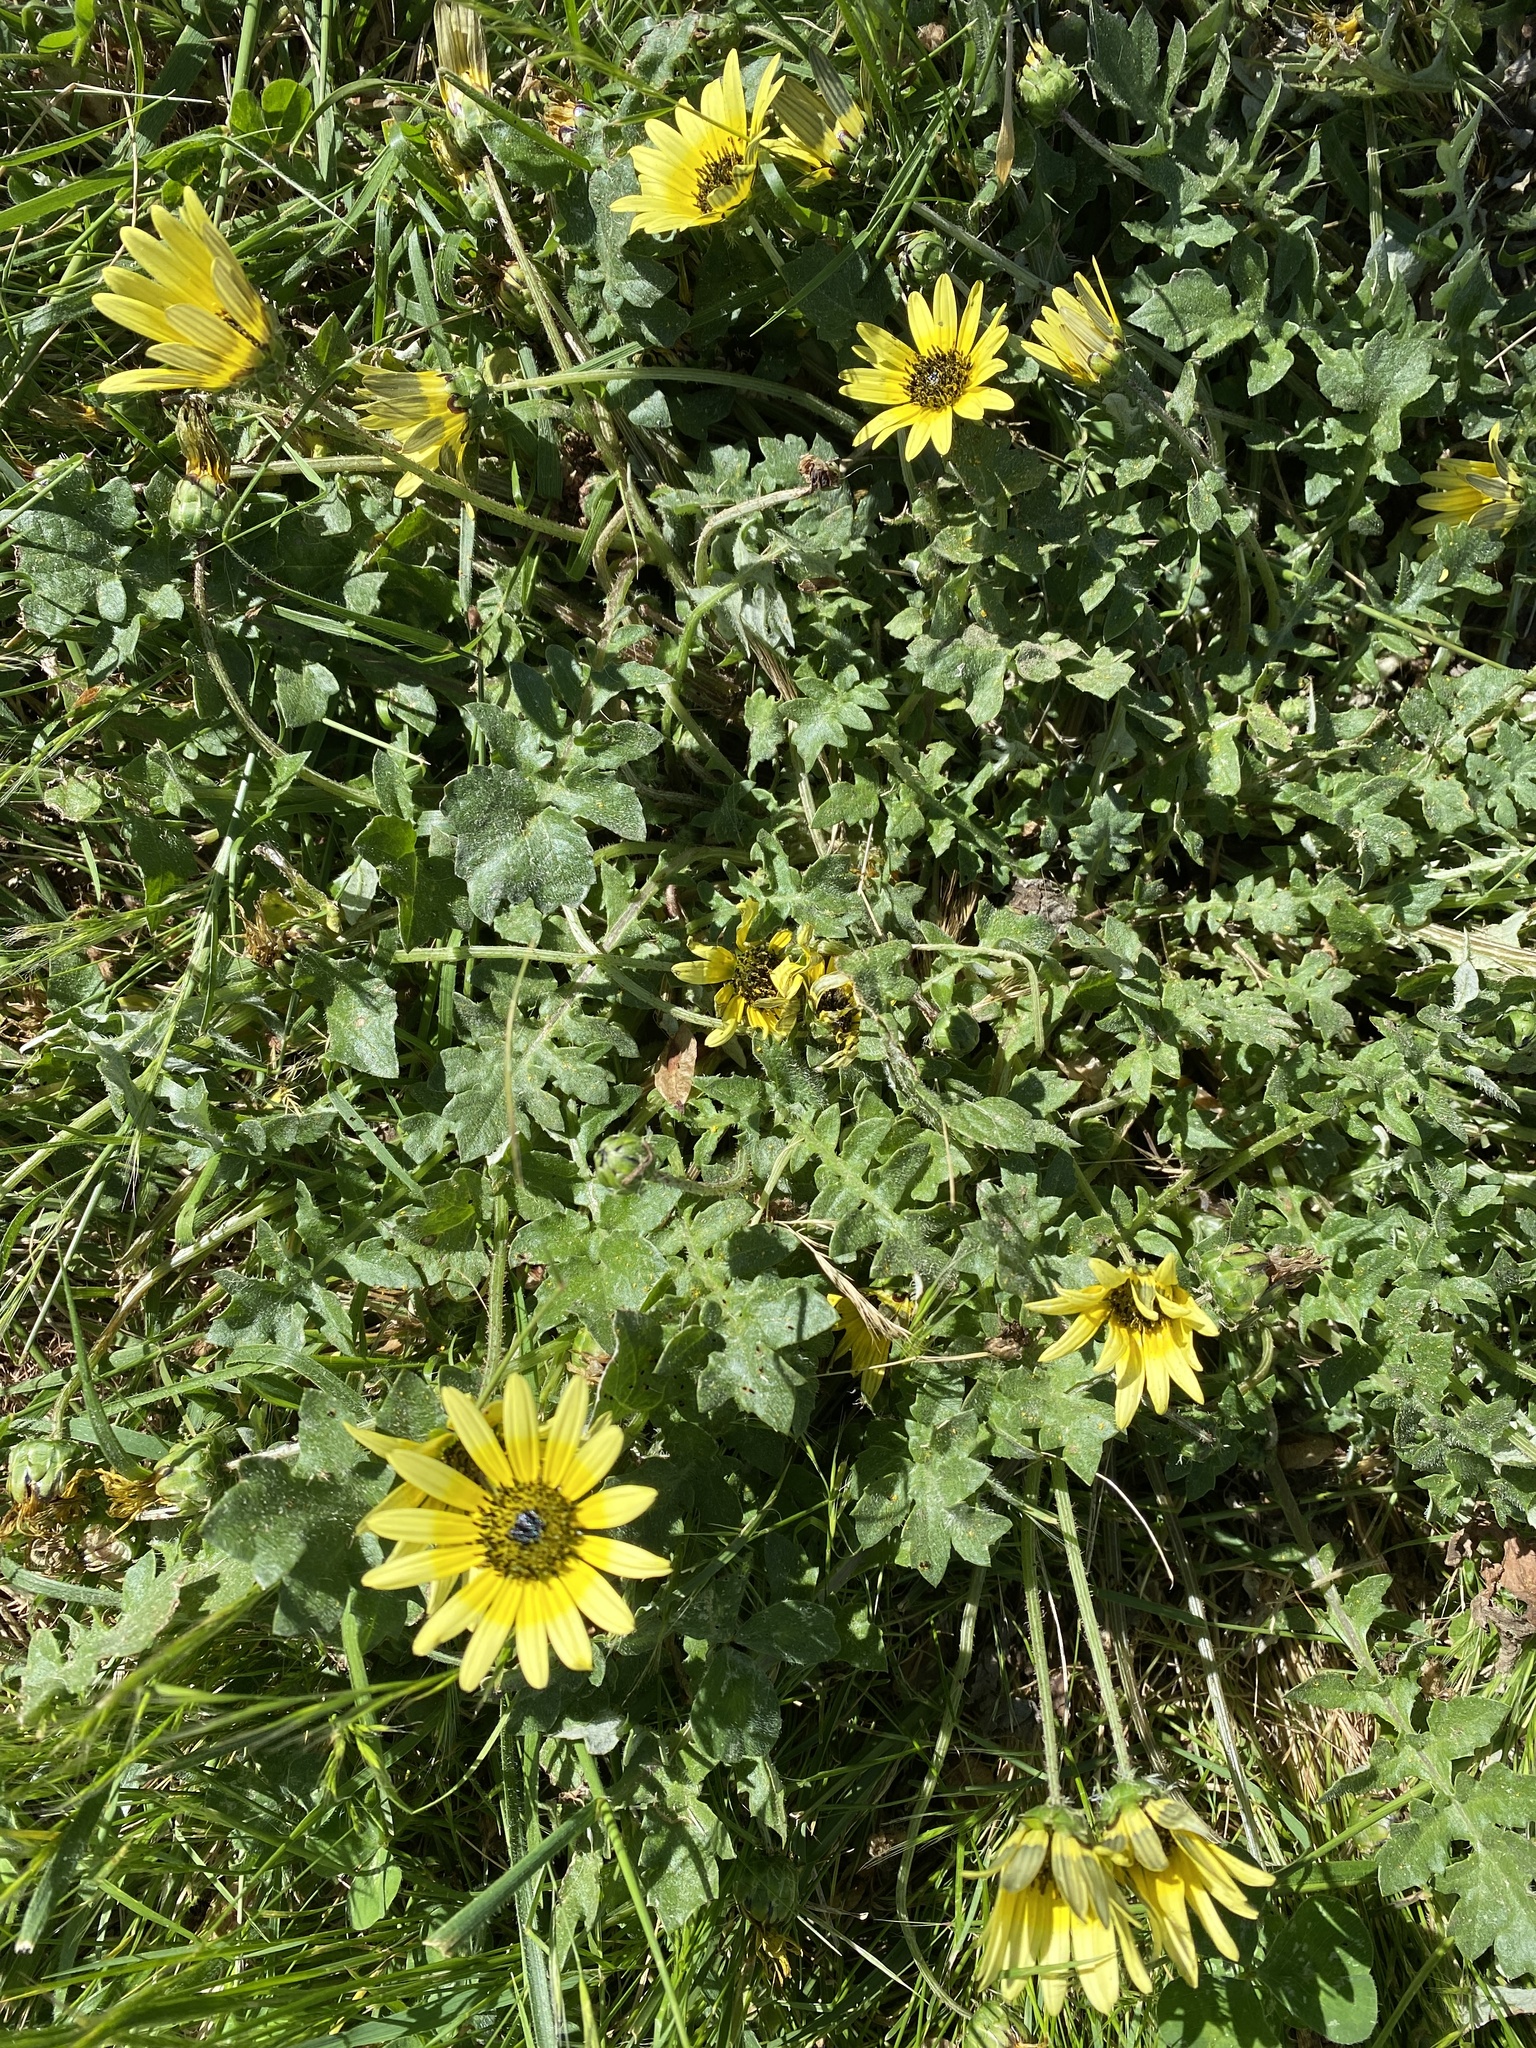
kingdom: Plantae
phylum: Tracheophyta
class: Magnoliopsida
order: Asterales
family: Asteraceae
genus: Arctotheca
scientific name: Arctotheca calendula
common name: Capeweed
